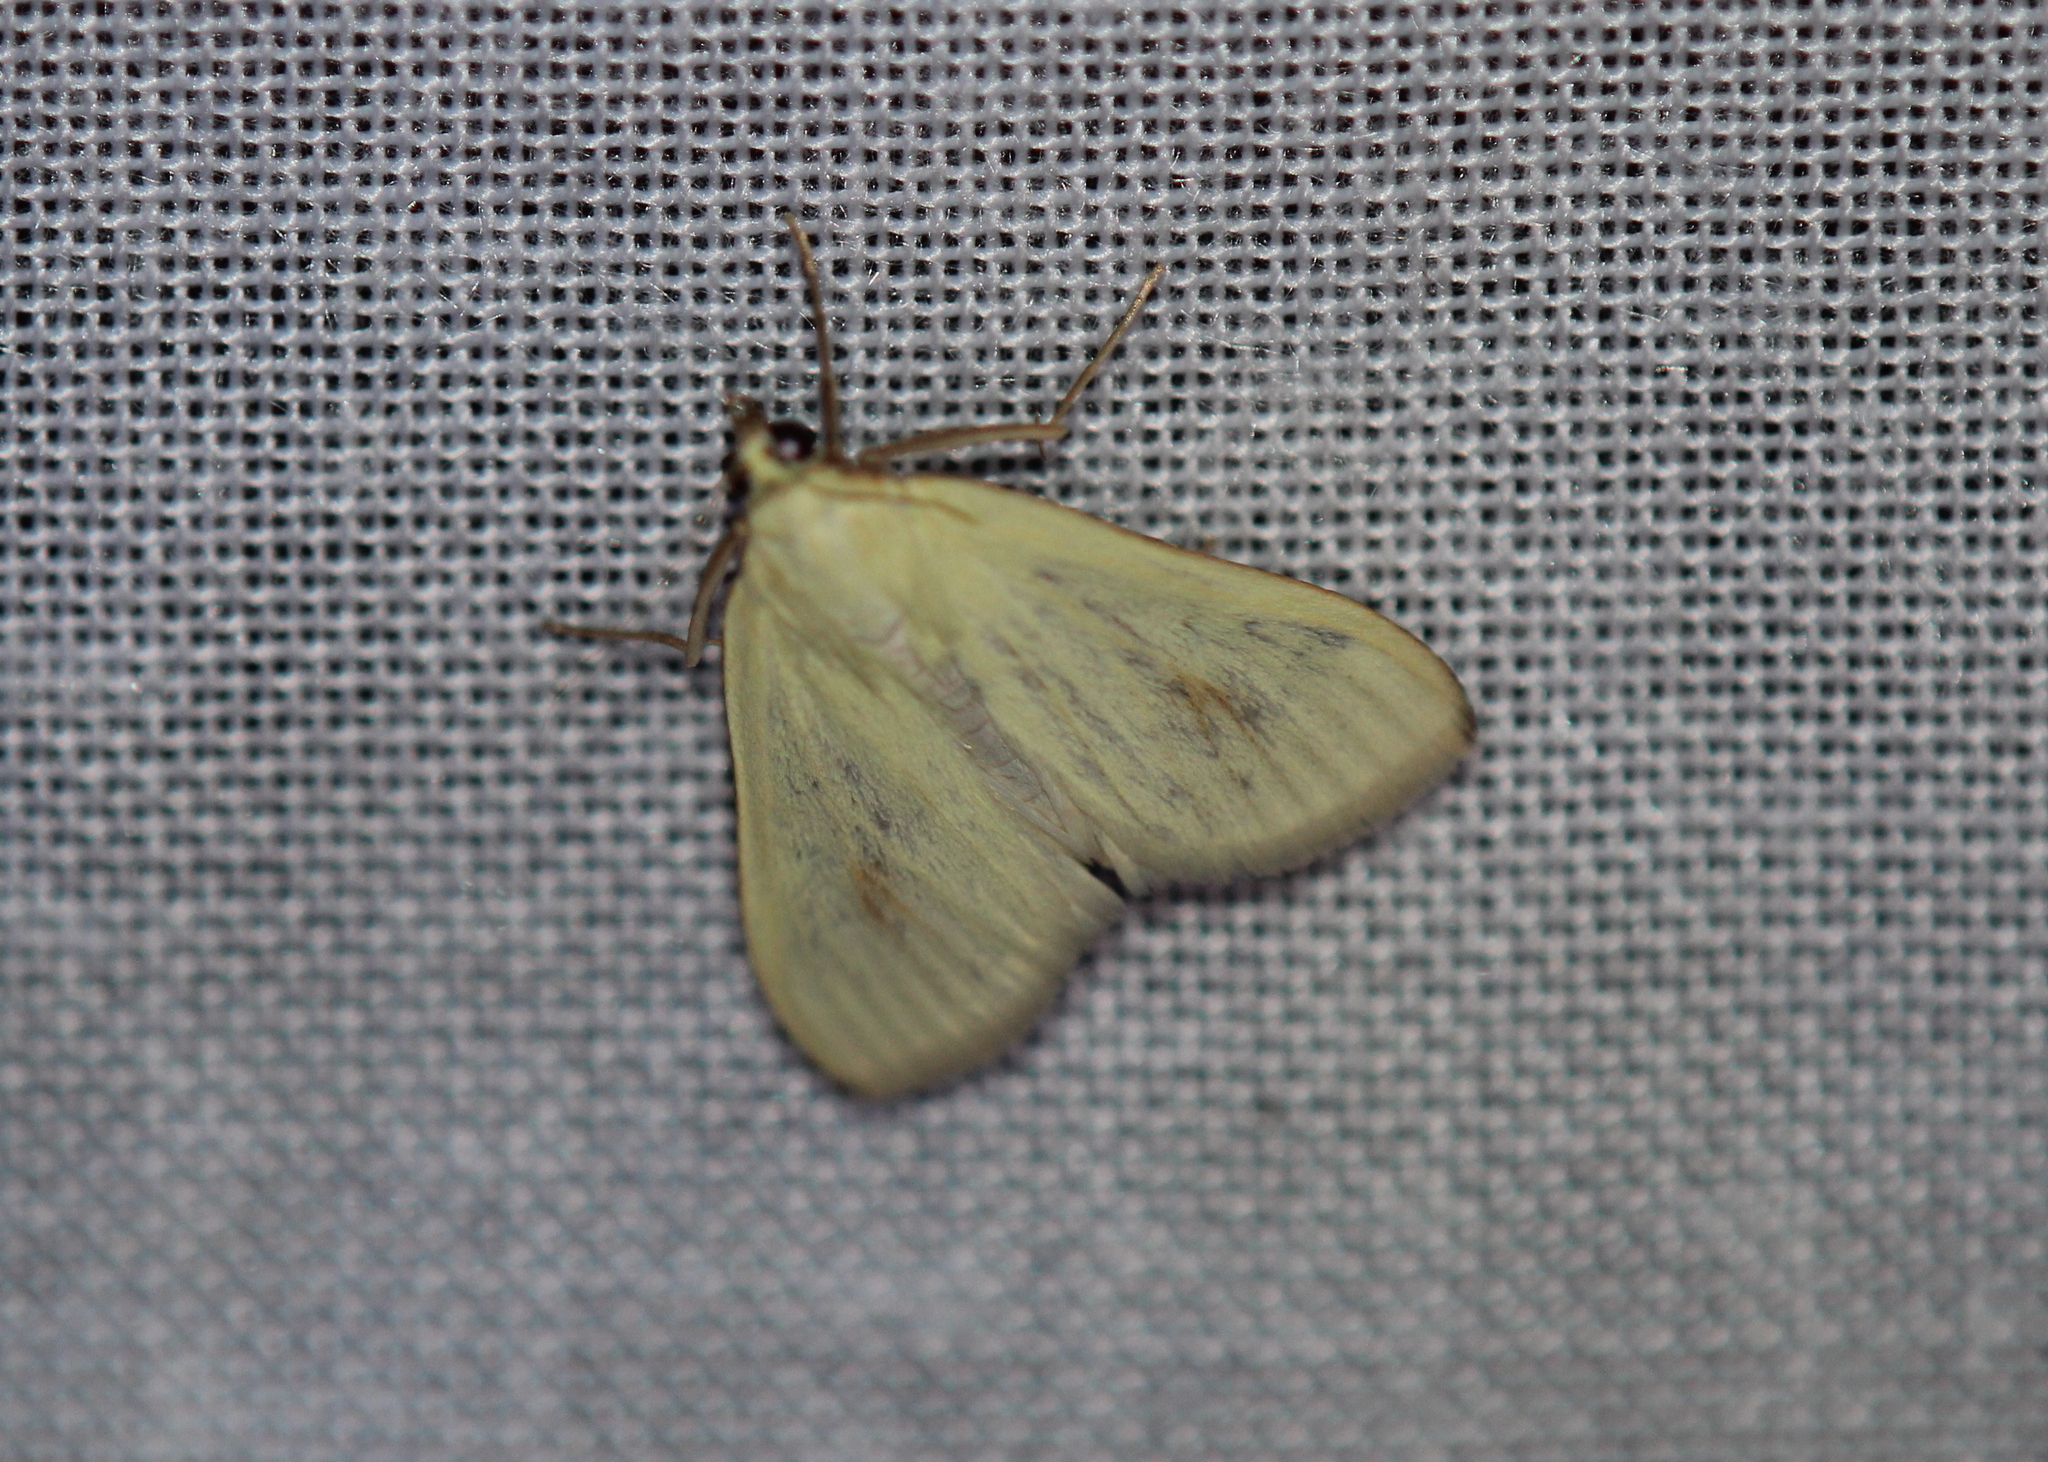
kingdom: Animalia
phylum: Arthropoda
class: Insecta
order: Lepidoptera
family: Crambidae
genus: Sitochroa
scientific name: Sitochroa palealis
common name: Greenish-yellow sitochroa moth
